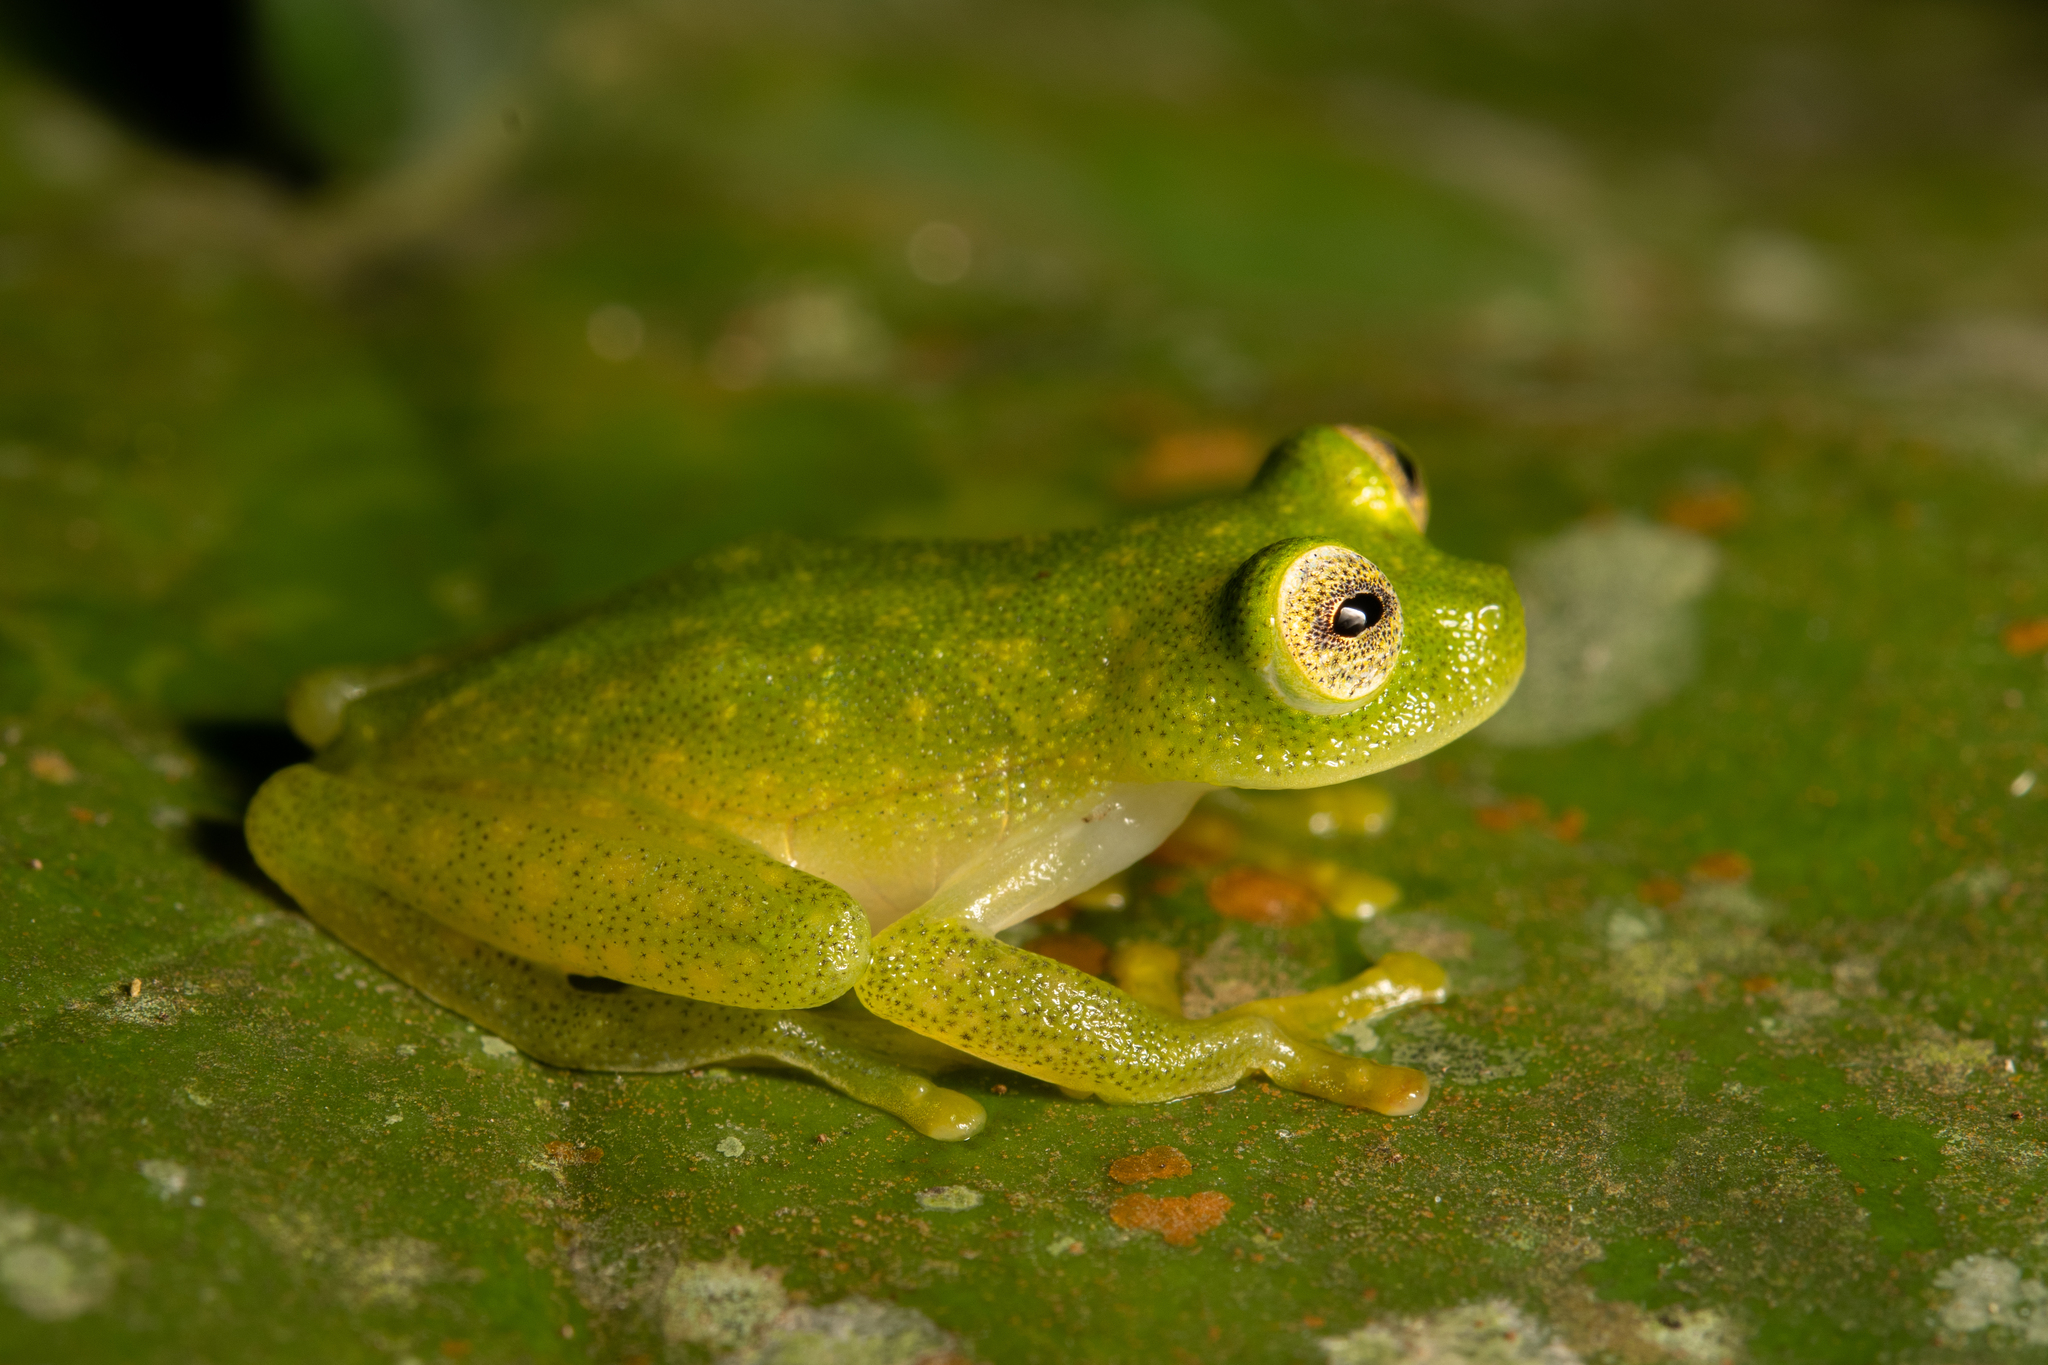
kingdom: Animalia
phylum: Chordata
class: Amphibia
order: Anura
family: Centrolenidae
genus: Hyalinobatrachium
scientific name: Hyalinobatrachium
